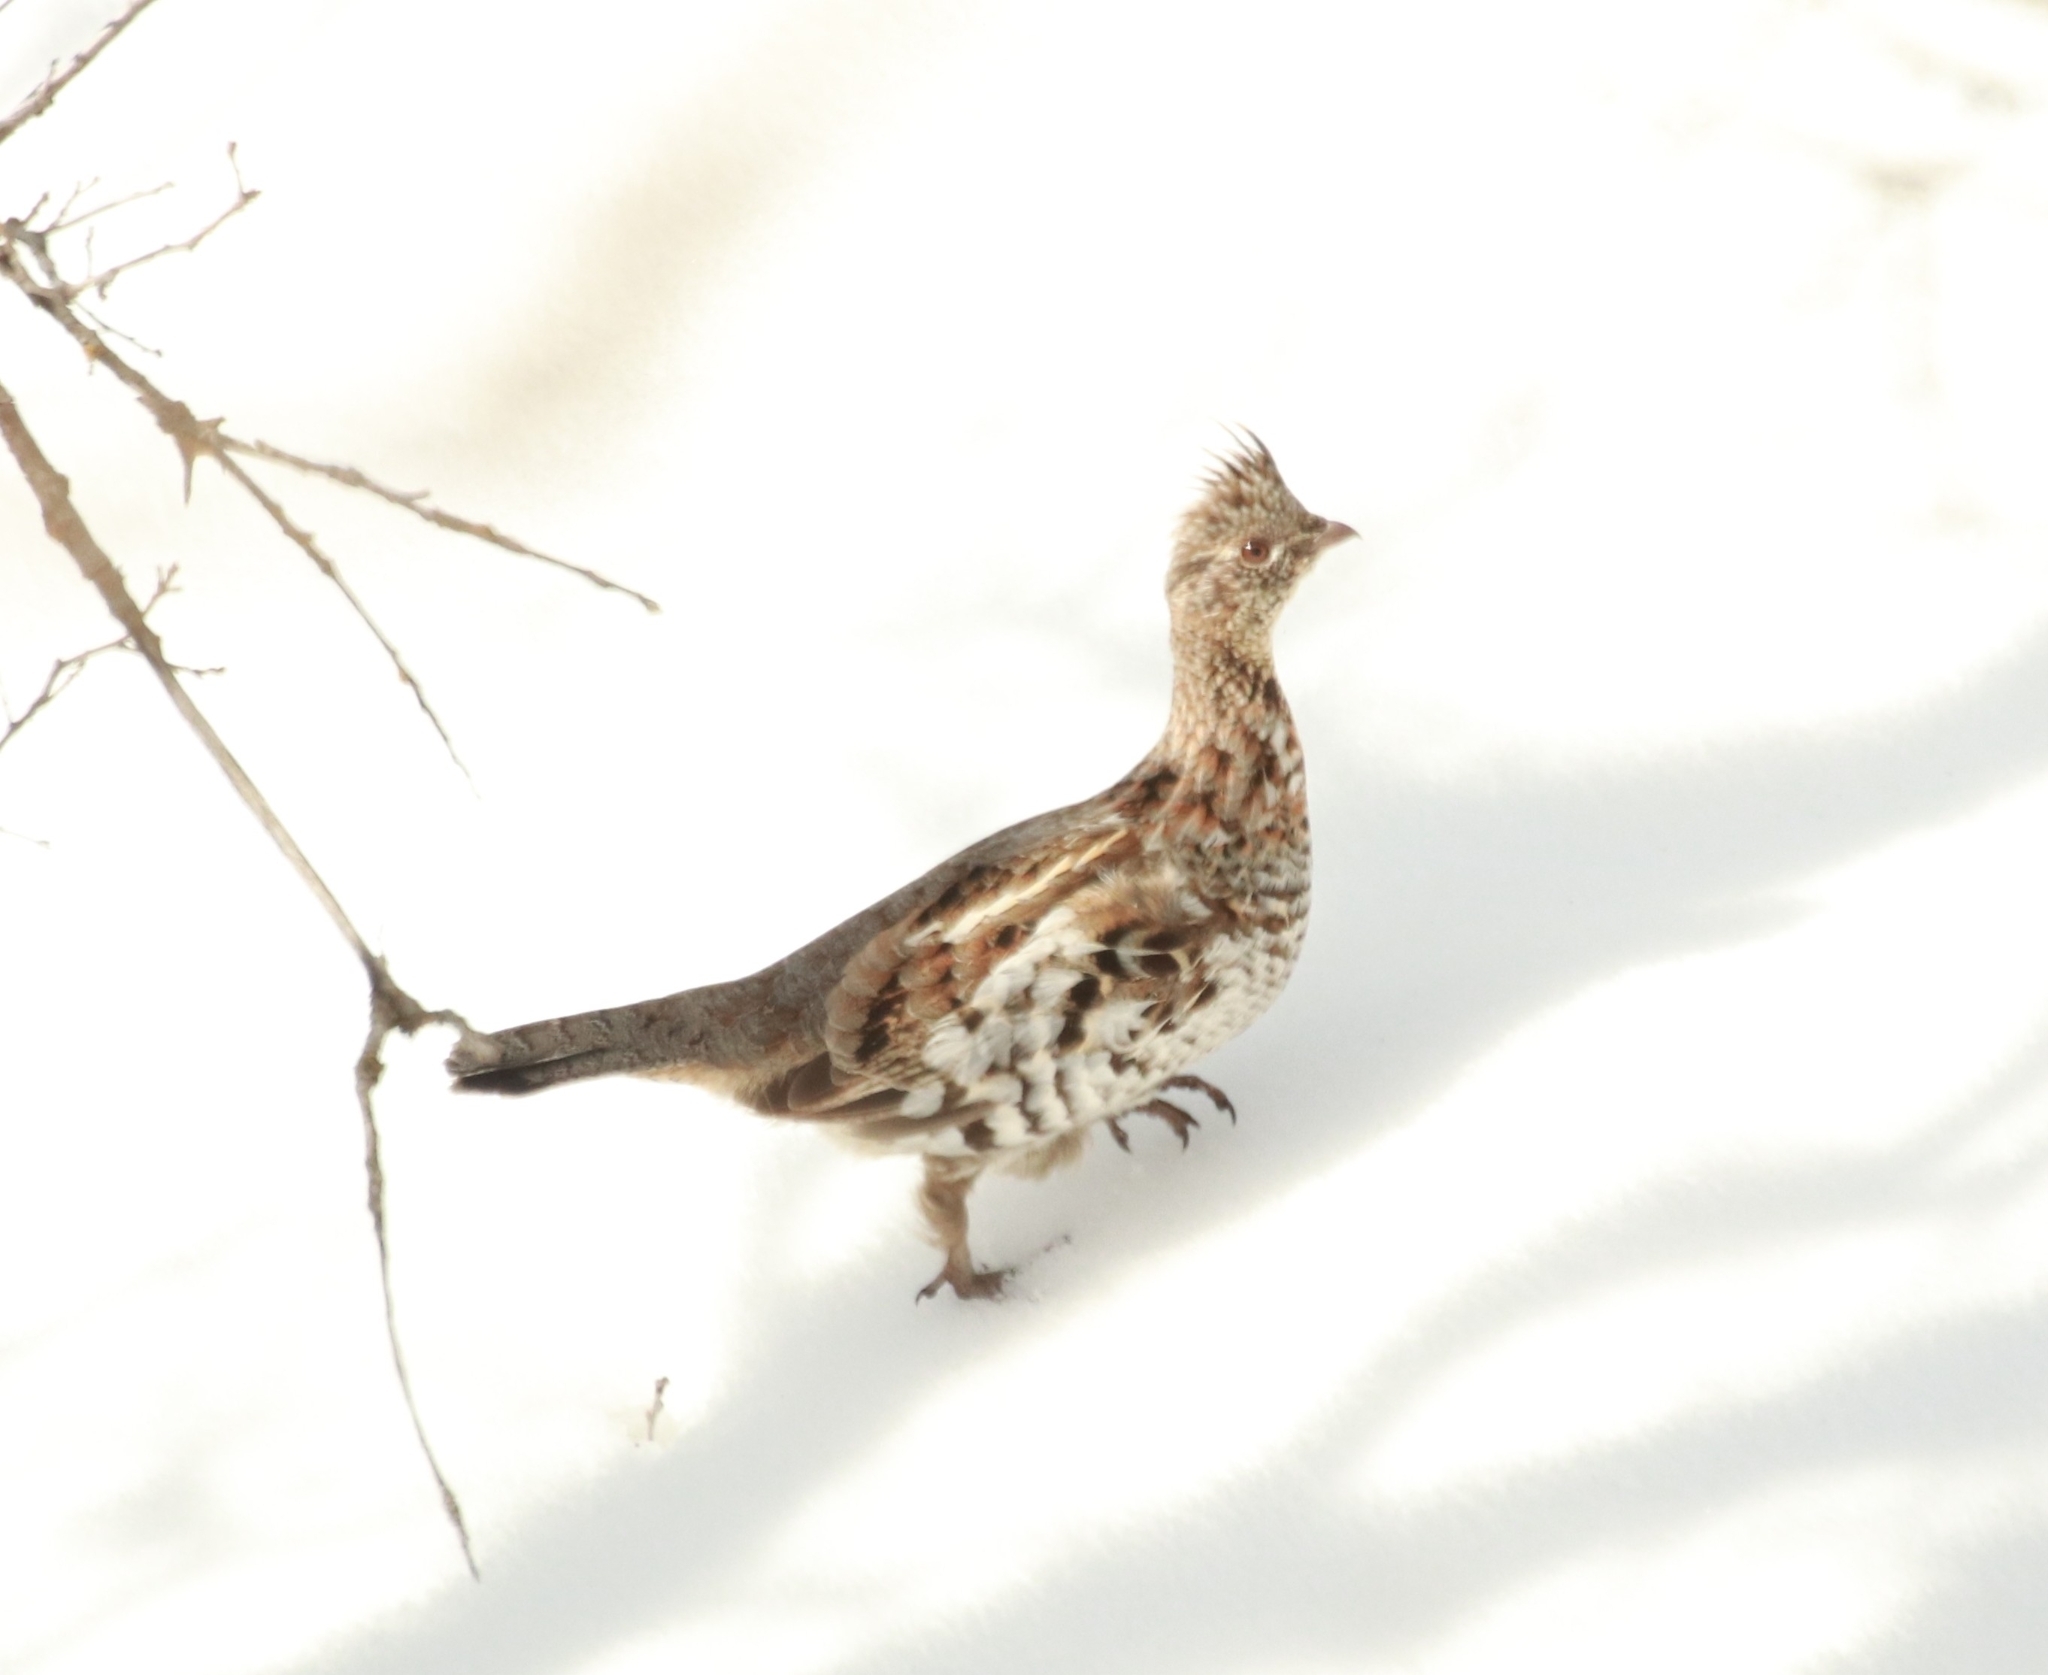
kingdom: Animalia
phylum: Chordata
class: Aves
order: Galliformes
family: Phasianidae
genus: Bonasa
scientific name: Bonasa umbellus
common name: Ruffed grouse
